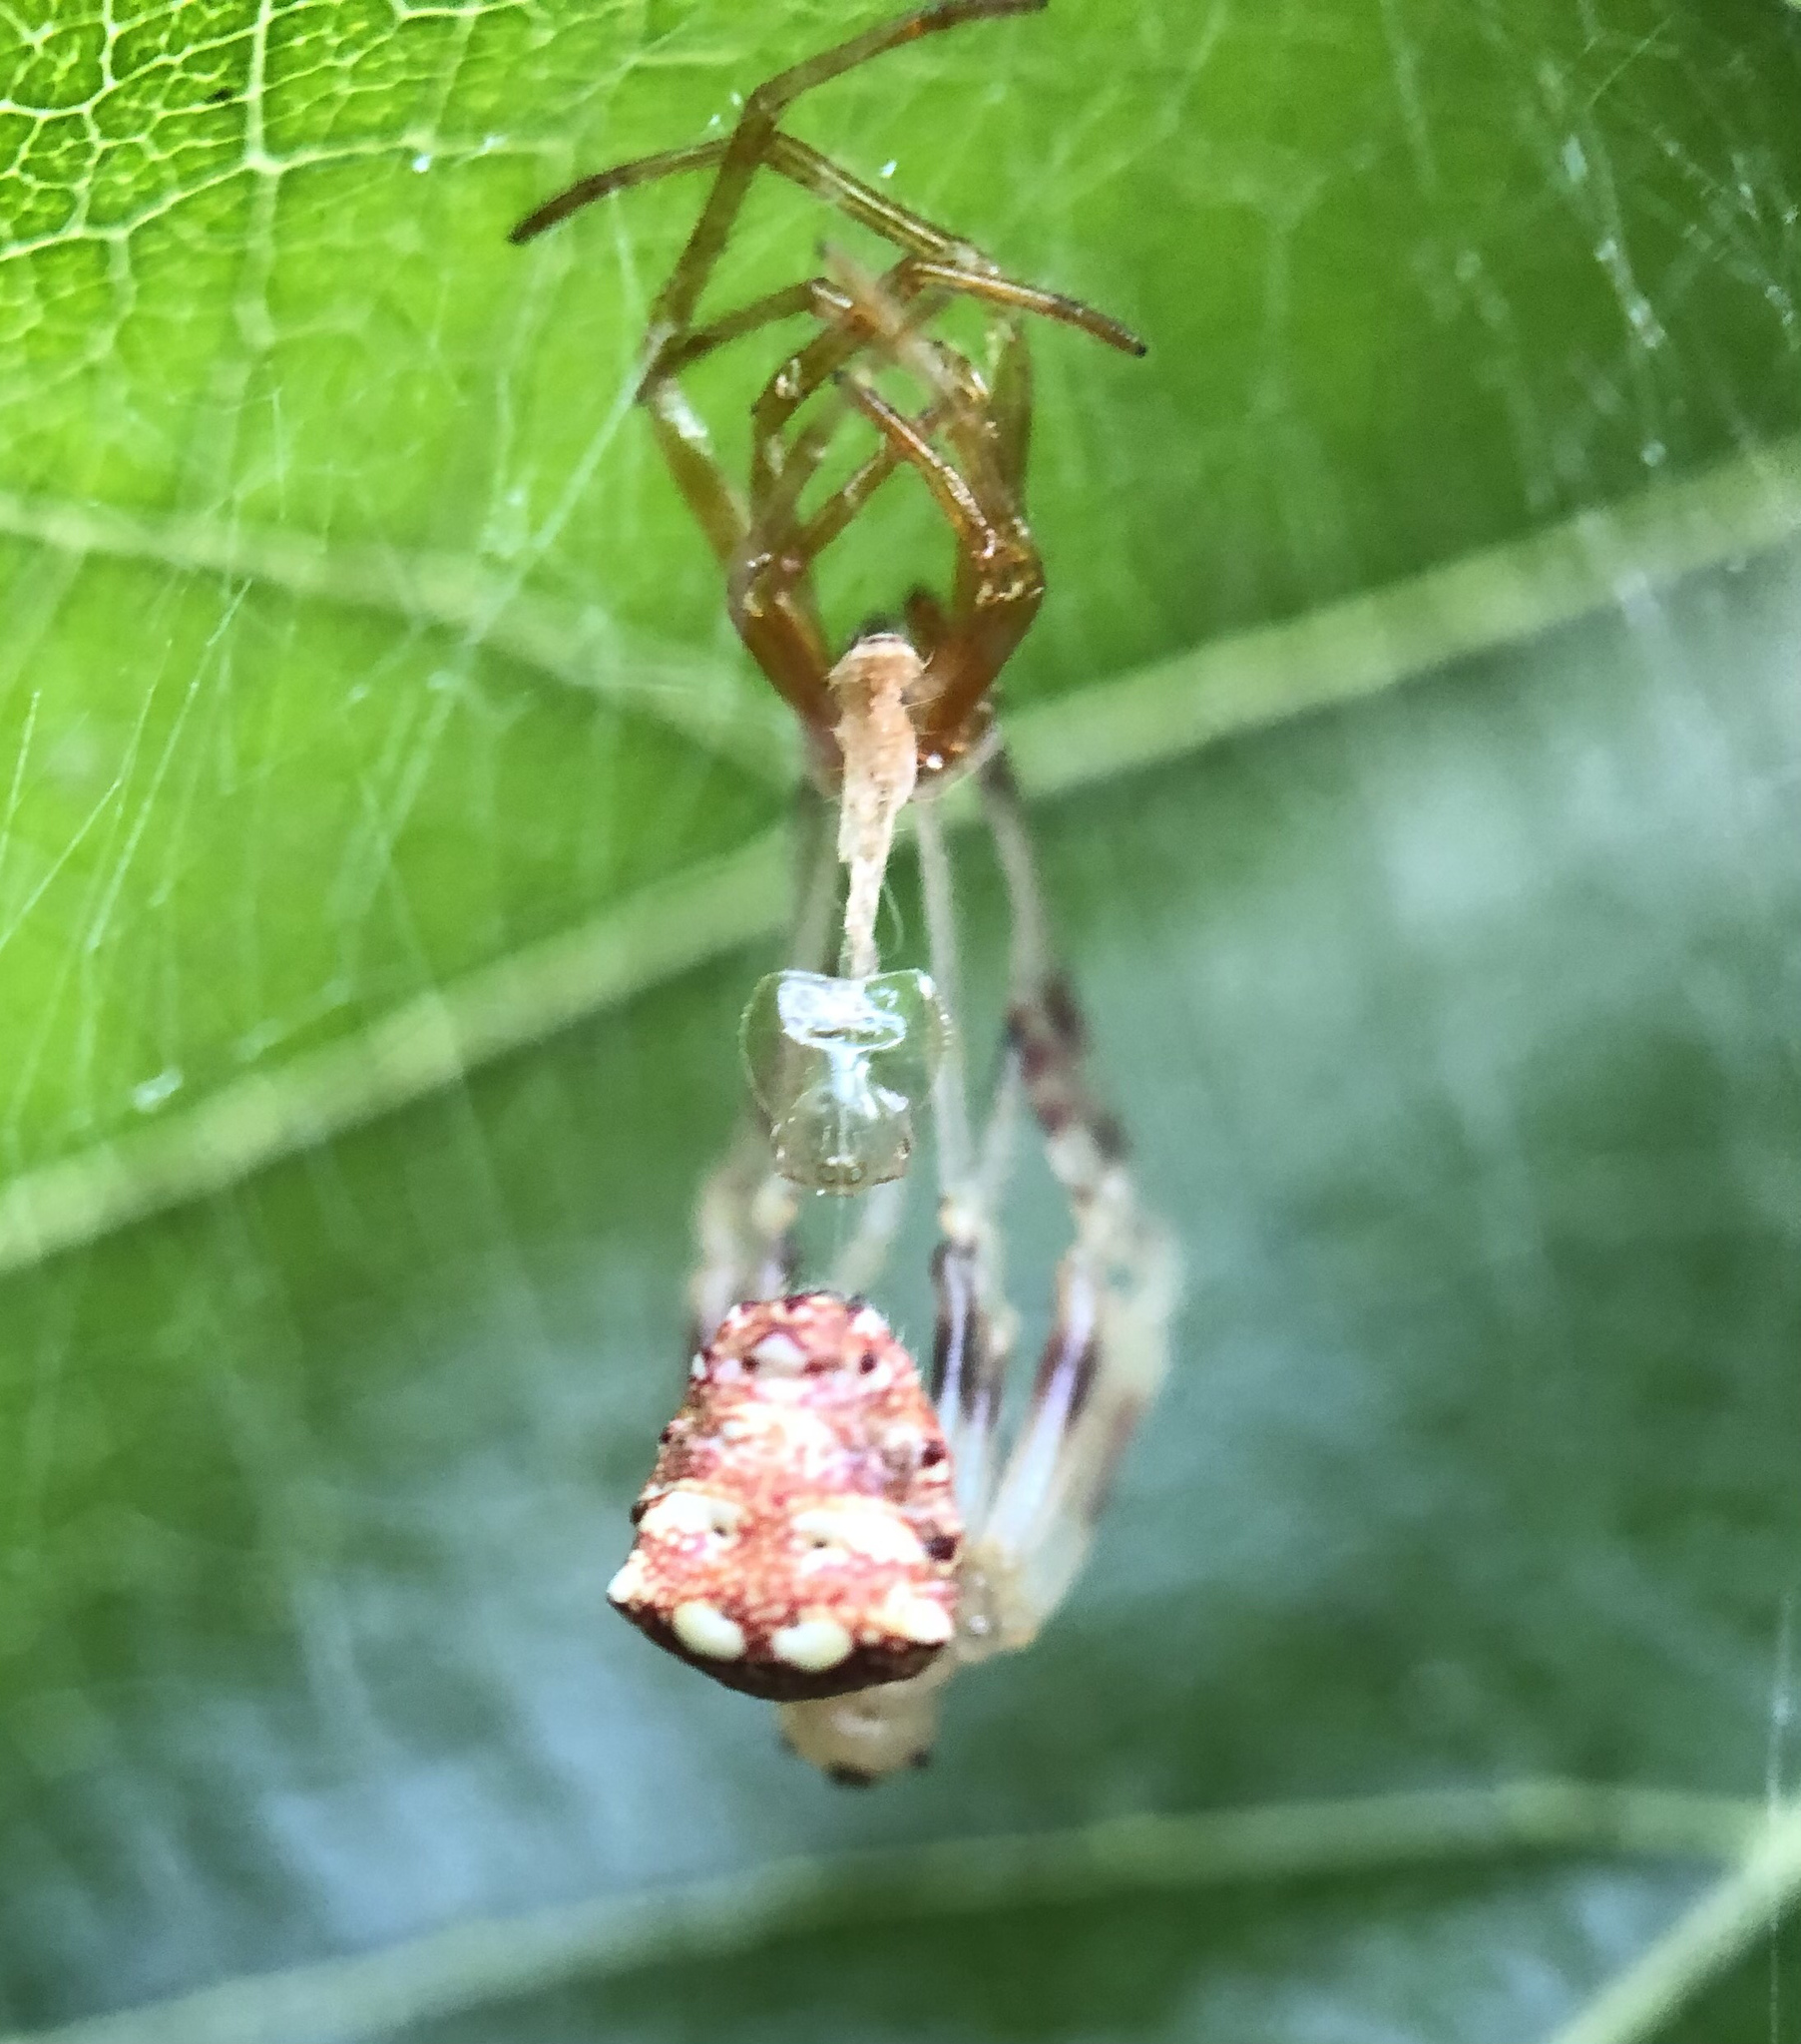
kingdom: Animalia
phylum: Arthropoda
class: Arachnida
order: Araneae
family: Araneidae
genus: Verrucosa
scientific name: Verrucosa arenata
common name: Orb weavers
